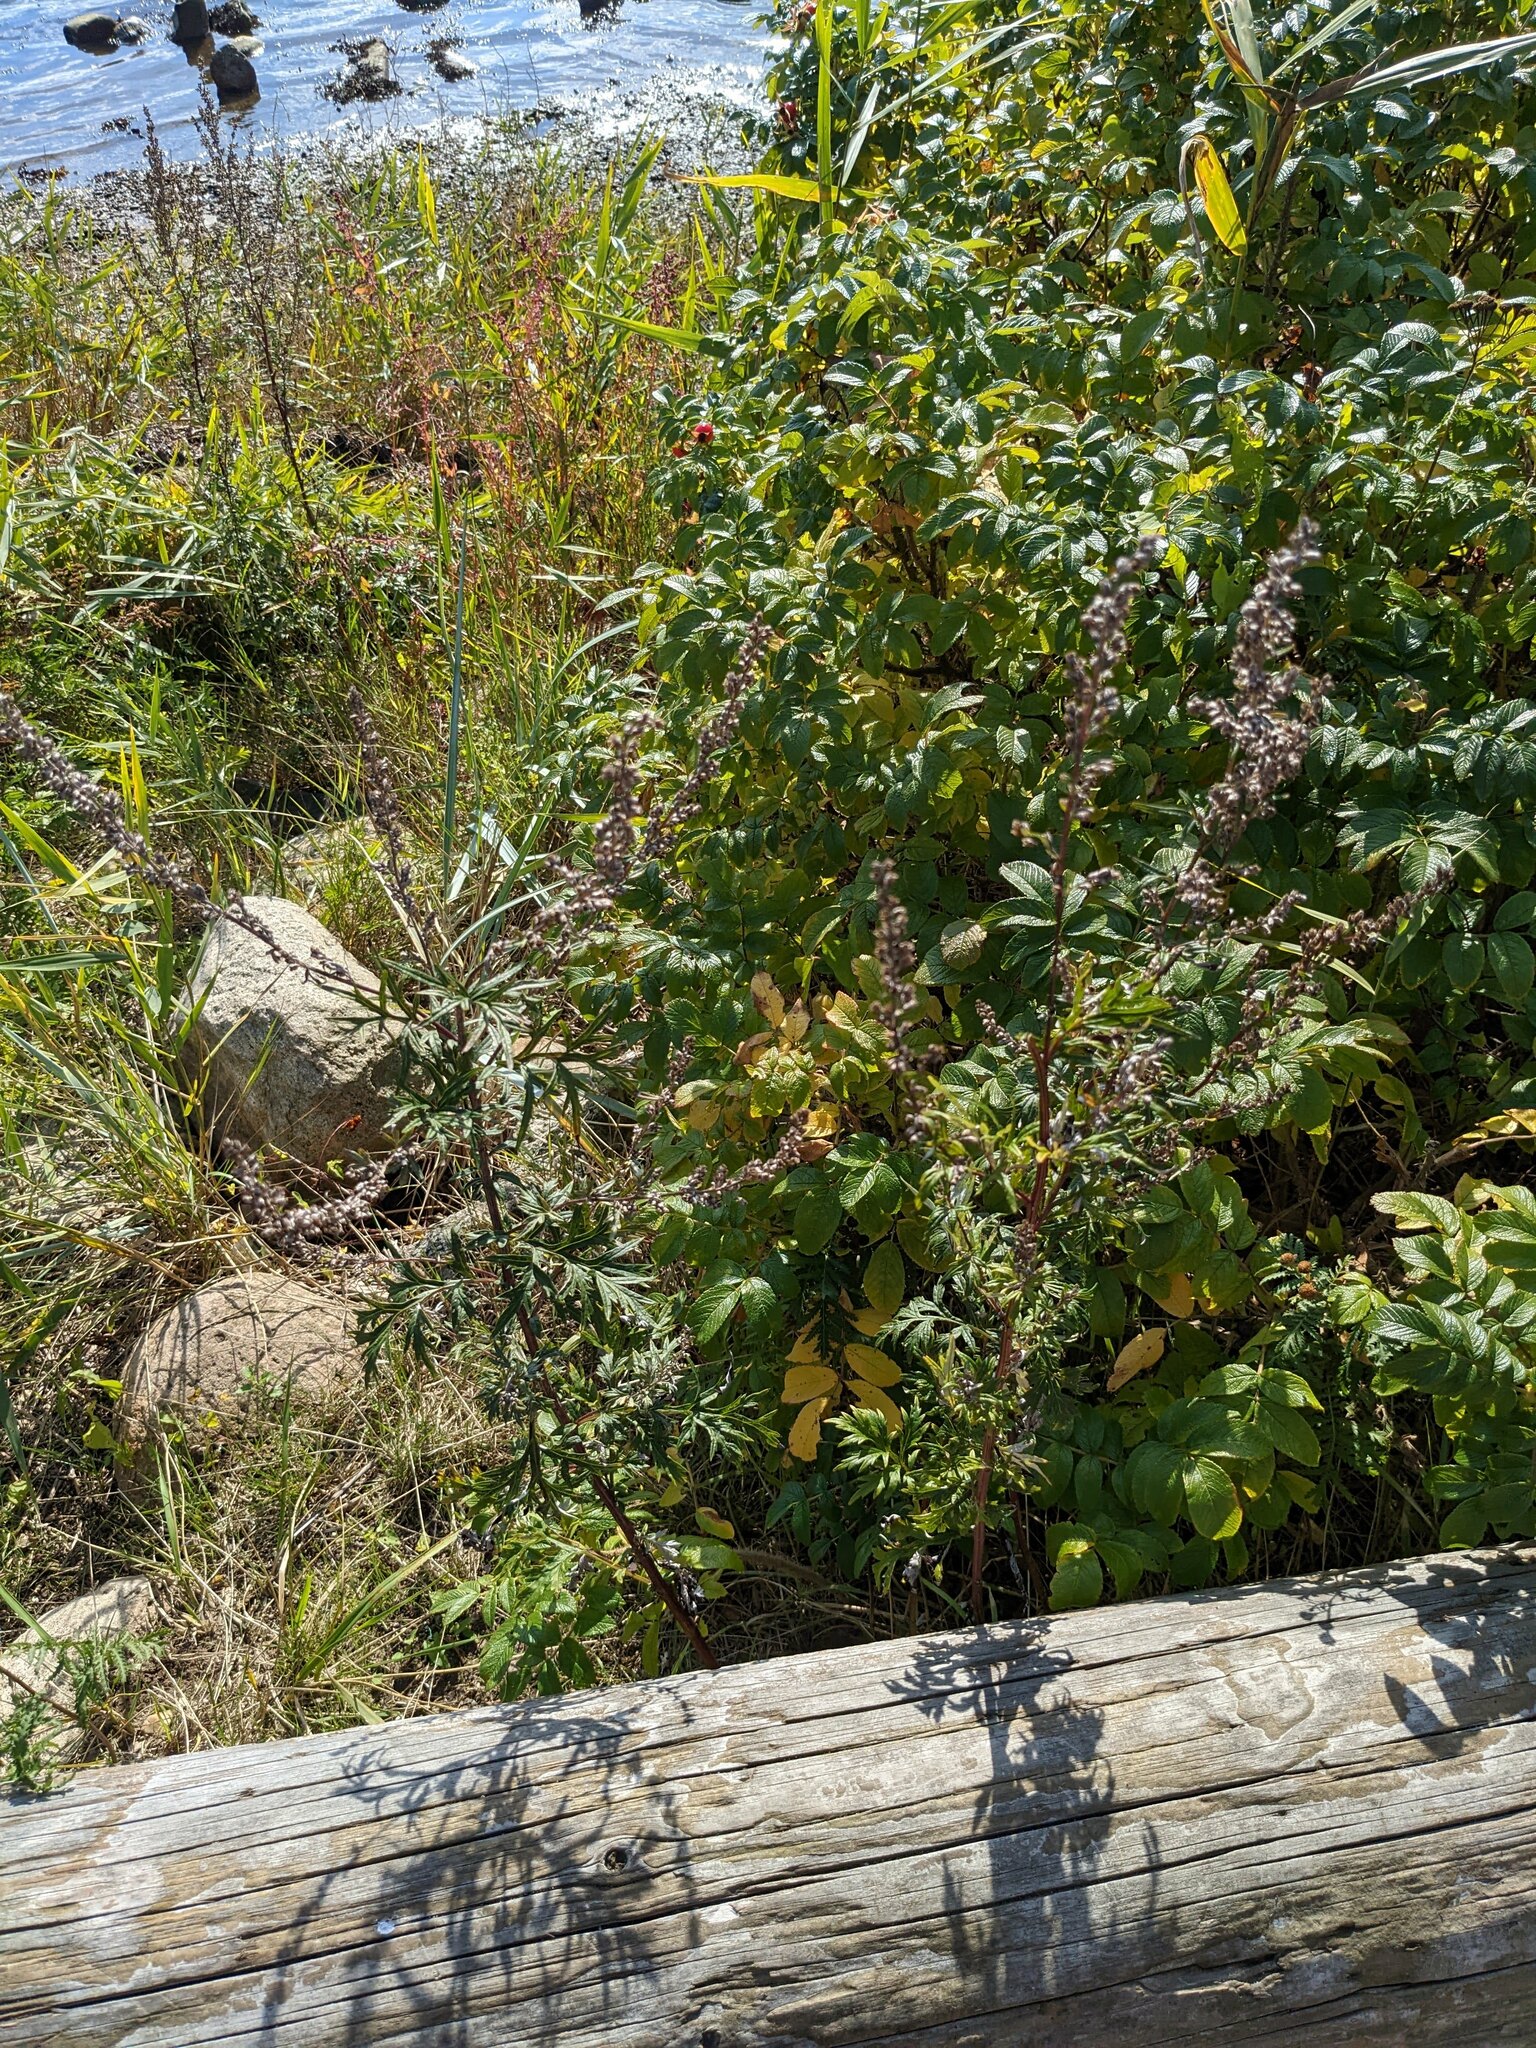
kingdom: Plantae
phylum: Tracheophyta
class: Magnoliopsida
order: Asterales
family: Asteraceae
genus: Artemisia
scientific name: Artemisia vulgaris
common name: Mugwort
